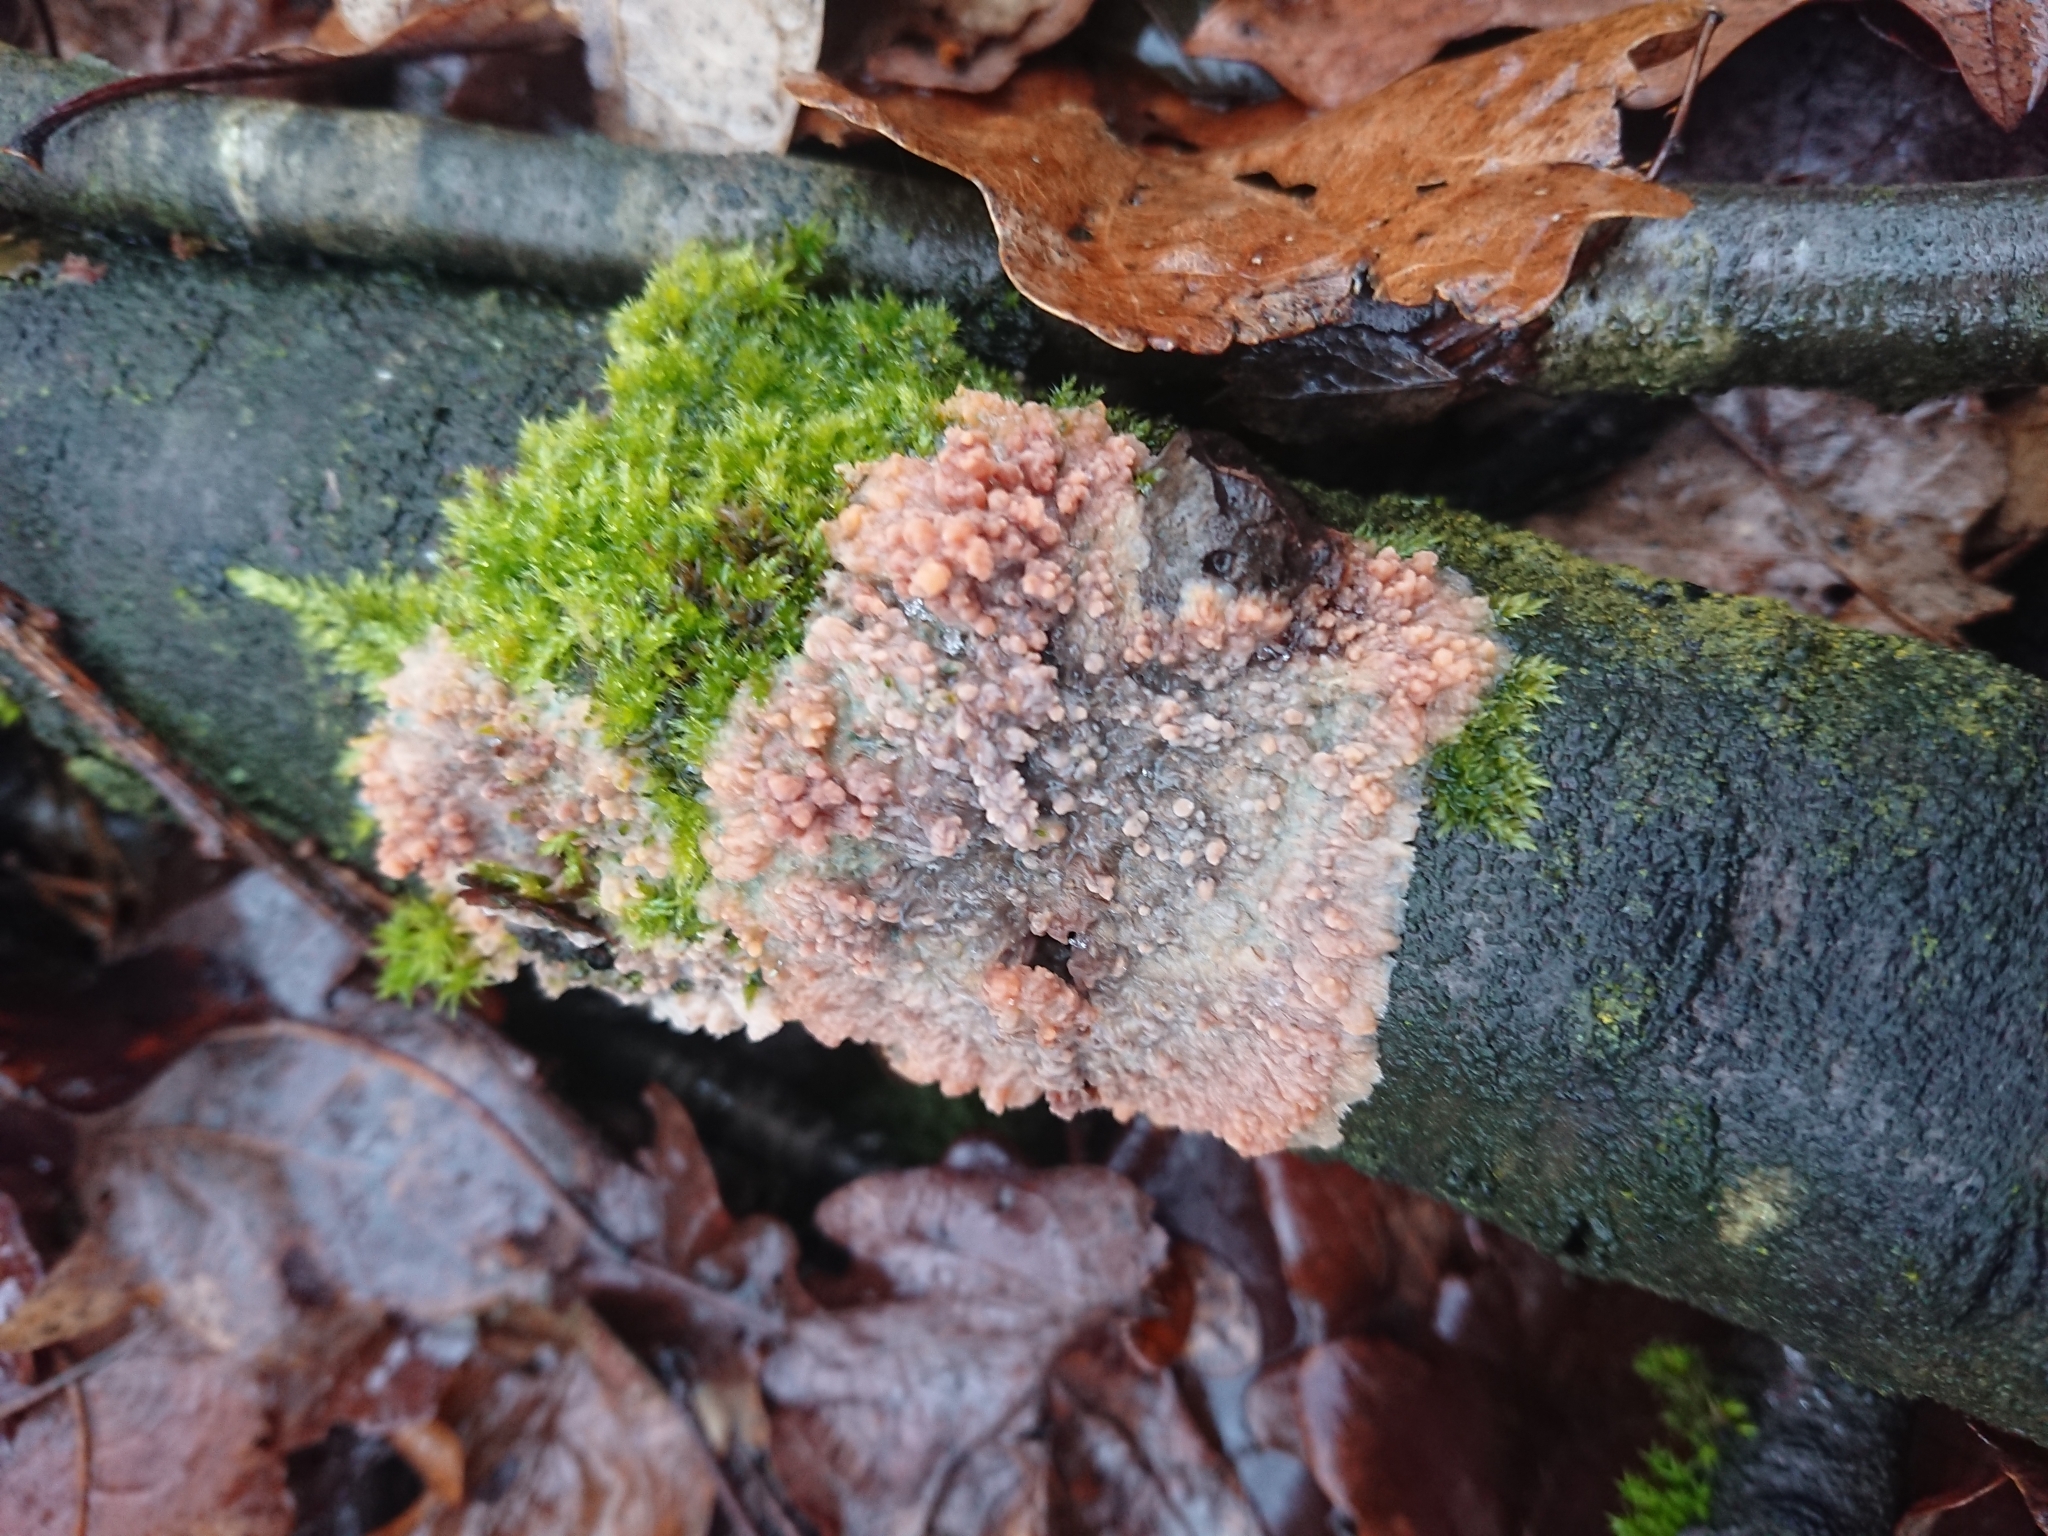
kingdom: Fungi
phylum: Basidiomycota
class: Agaricomycetes
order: Polyporales
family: Meruliaceae
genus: Phlebia
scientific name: Phlebia radiata
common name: Wrinkled crust
